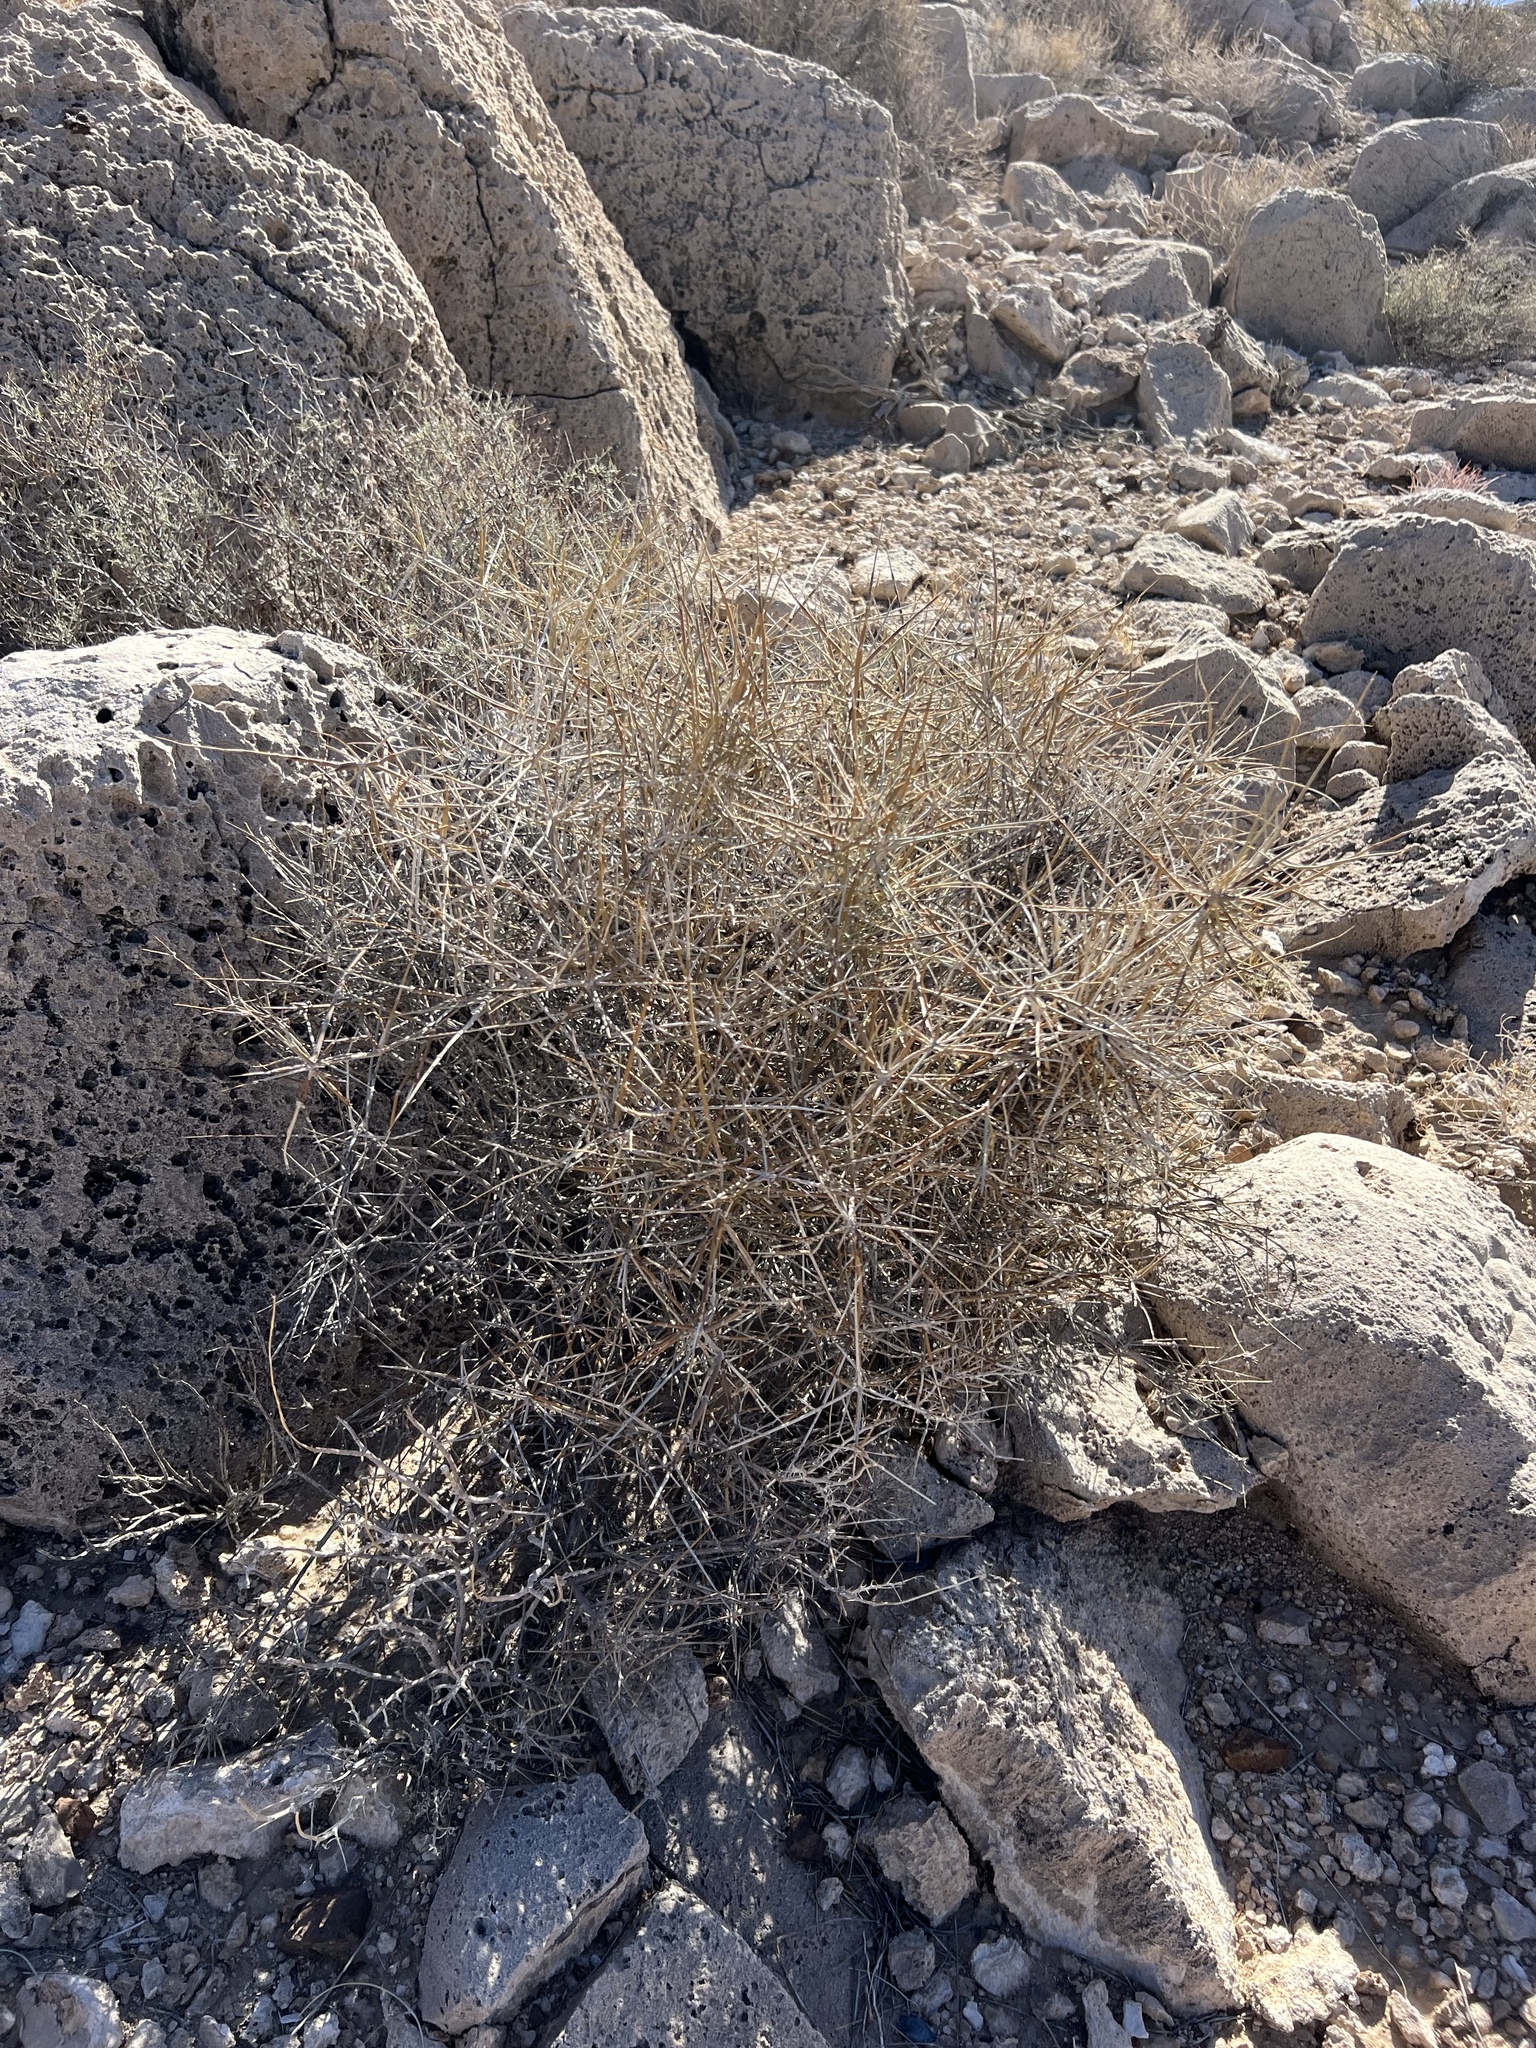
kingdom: Plantae
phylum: Tracheophyta
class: Gnetopsida
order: Ephedrales
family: Ephedraceae
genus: Ephedra
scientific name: Ephedra nevadensis
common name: Gray ephedra
